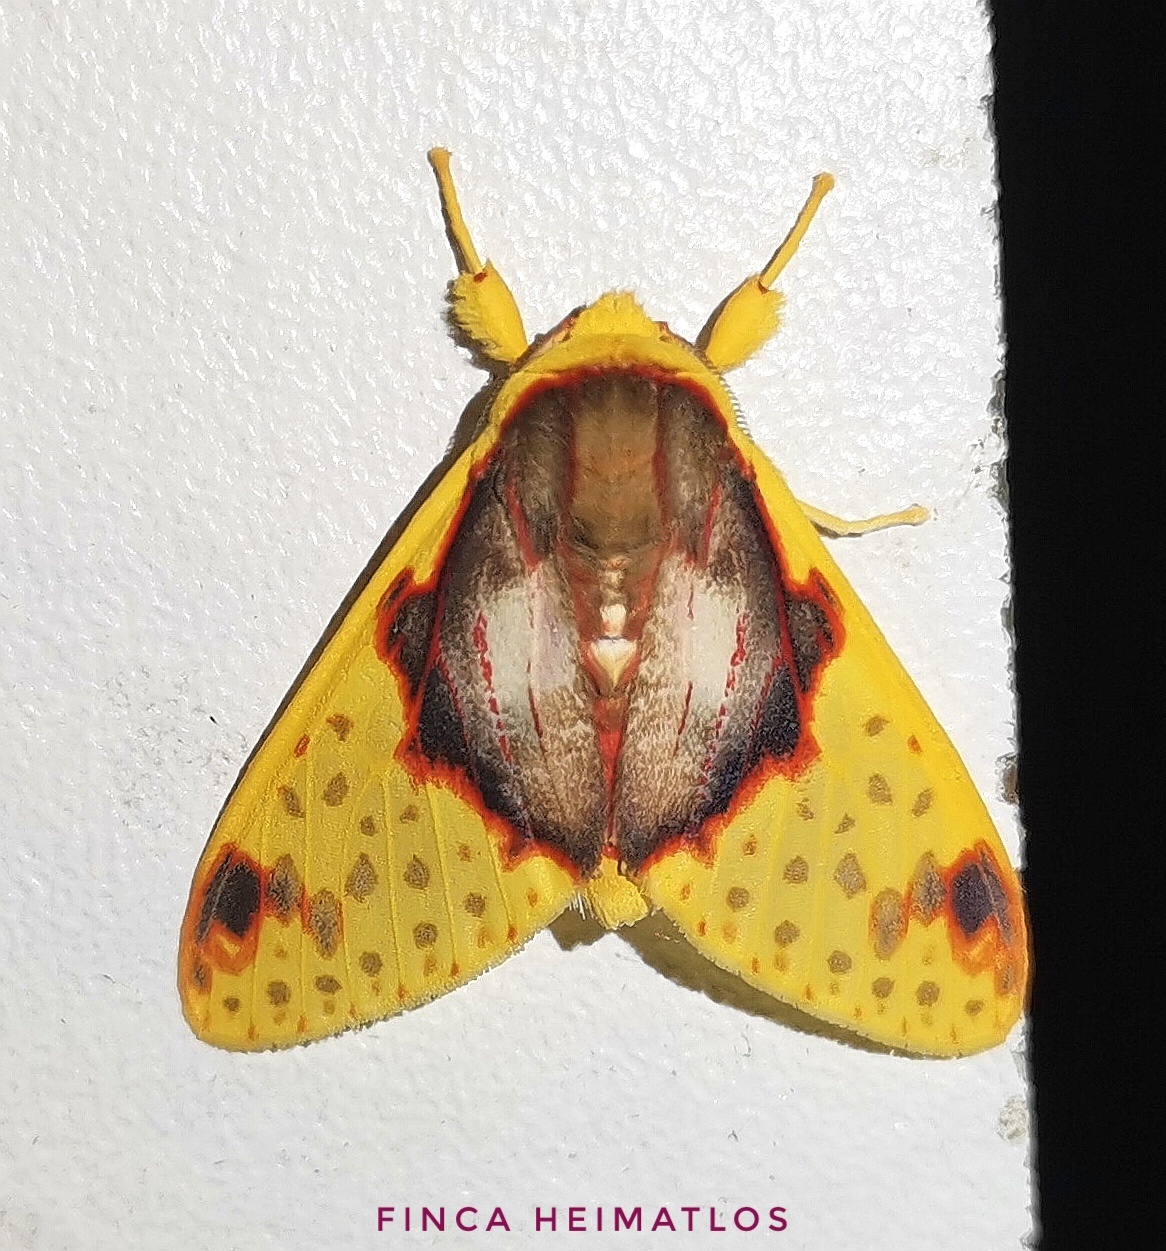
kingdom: Animalia
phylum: Arthropoda
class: Insecta
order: Lepidoptera
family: Erebidae
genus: Amaxia
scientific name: Amaxia flavicollis
